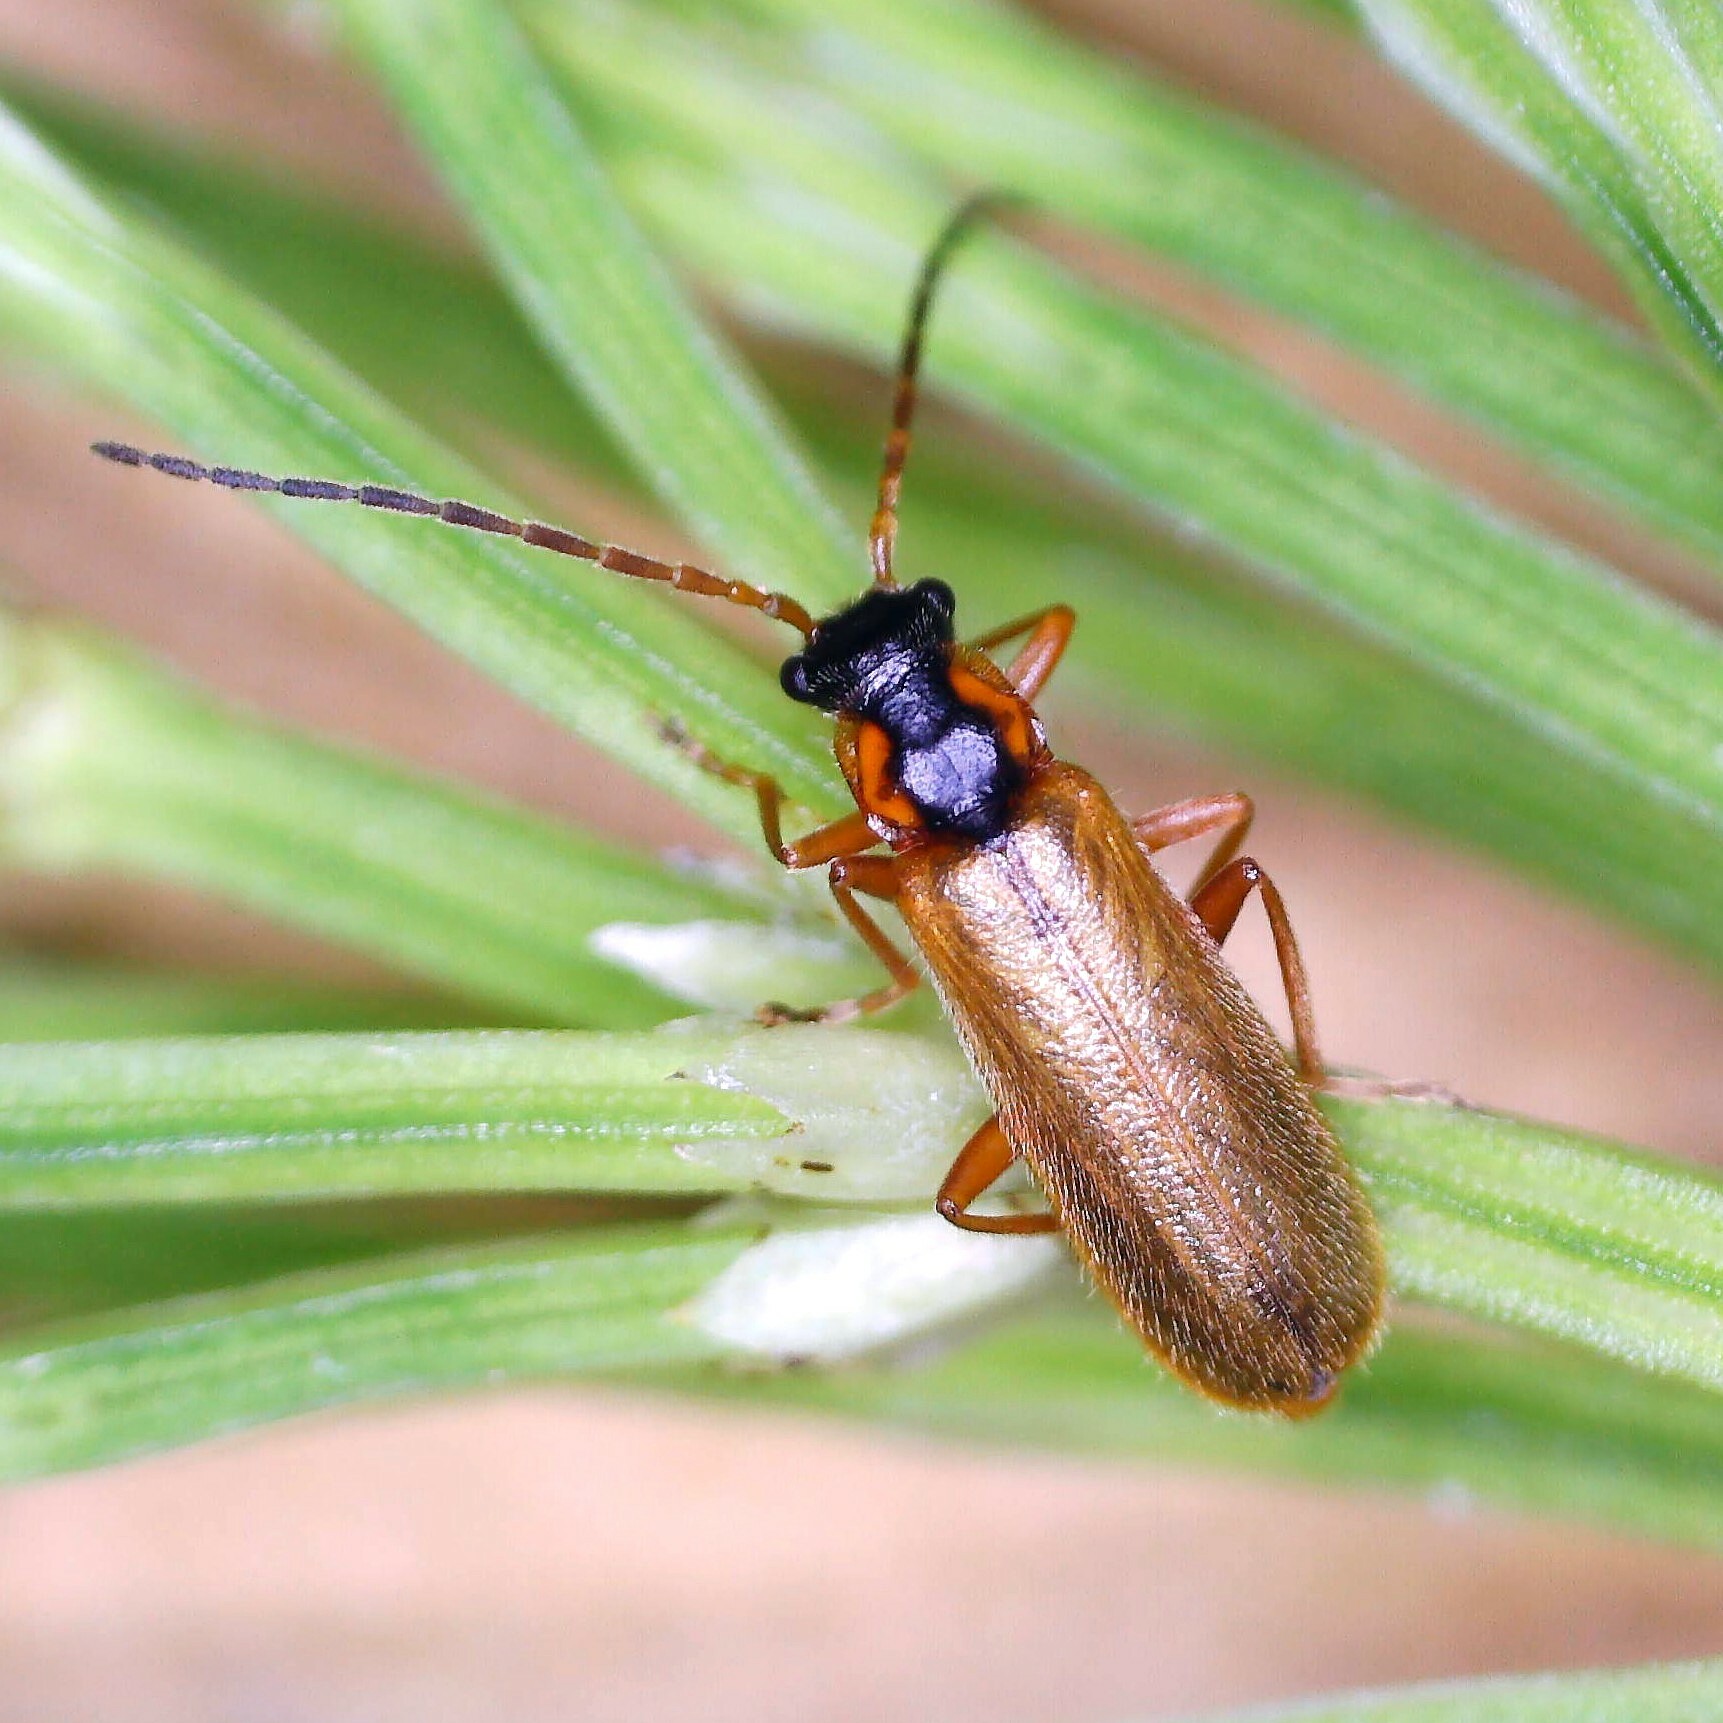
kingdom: Animalia
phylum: Arthropoda
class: Insecta
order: Coleoptera
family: Cantharidae
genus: Rhagonycha
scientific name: Rhagonycha testacea
